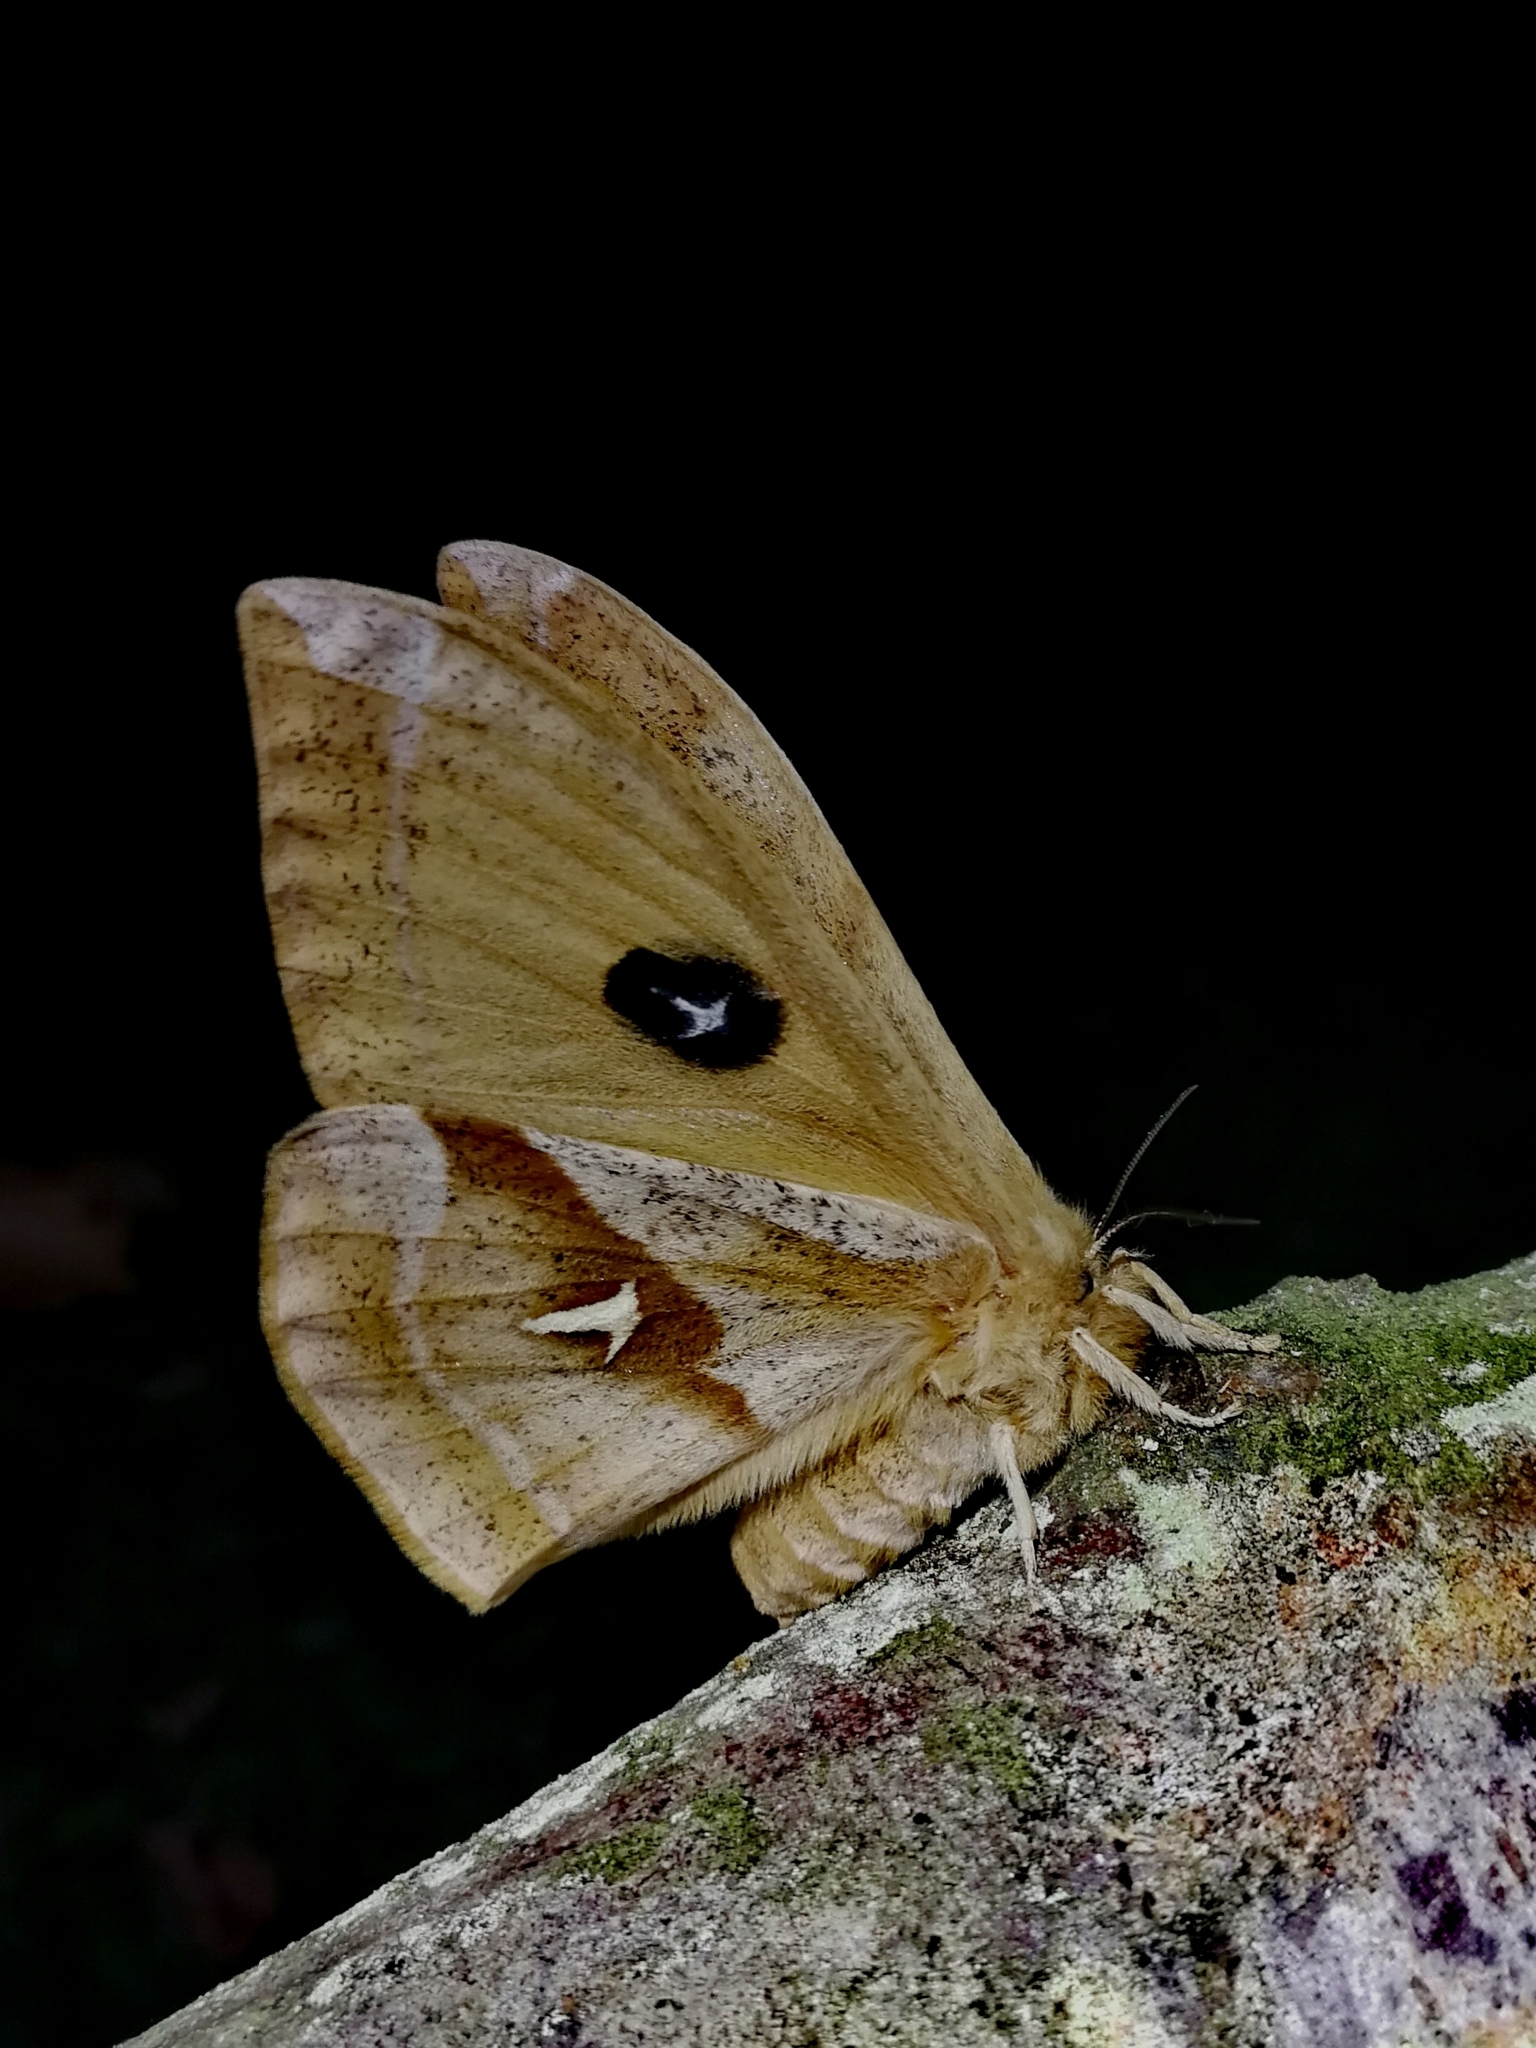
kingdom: Animalia
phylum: Arthropoda
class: Insecta
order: Lepidoptera
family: Saturniidae
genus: Aglia
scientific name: Aglia tau
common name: Tau emperor
